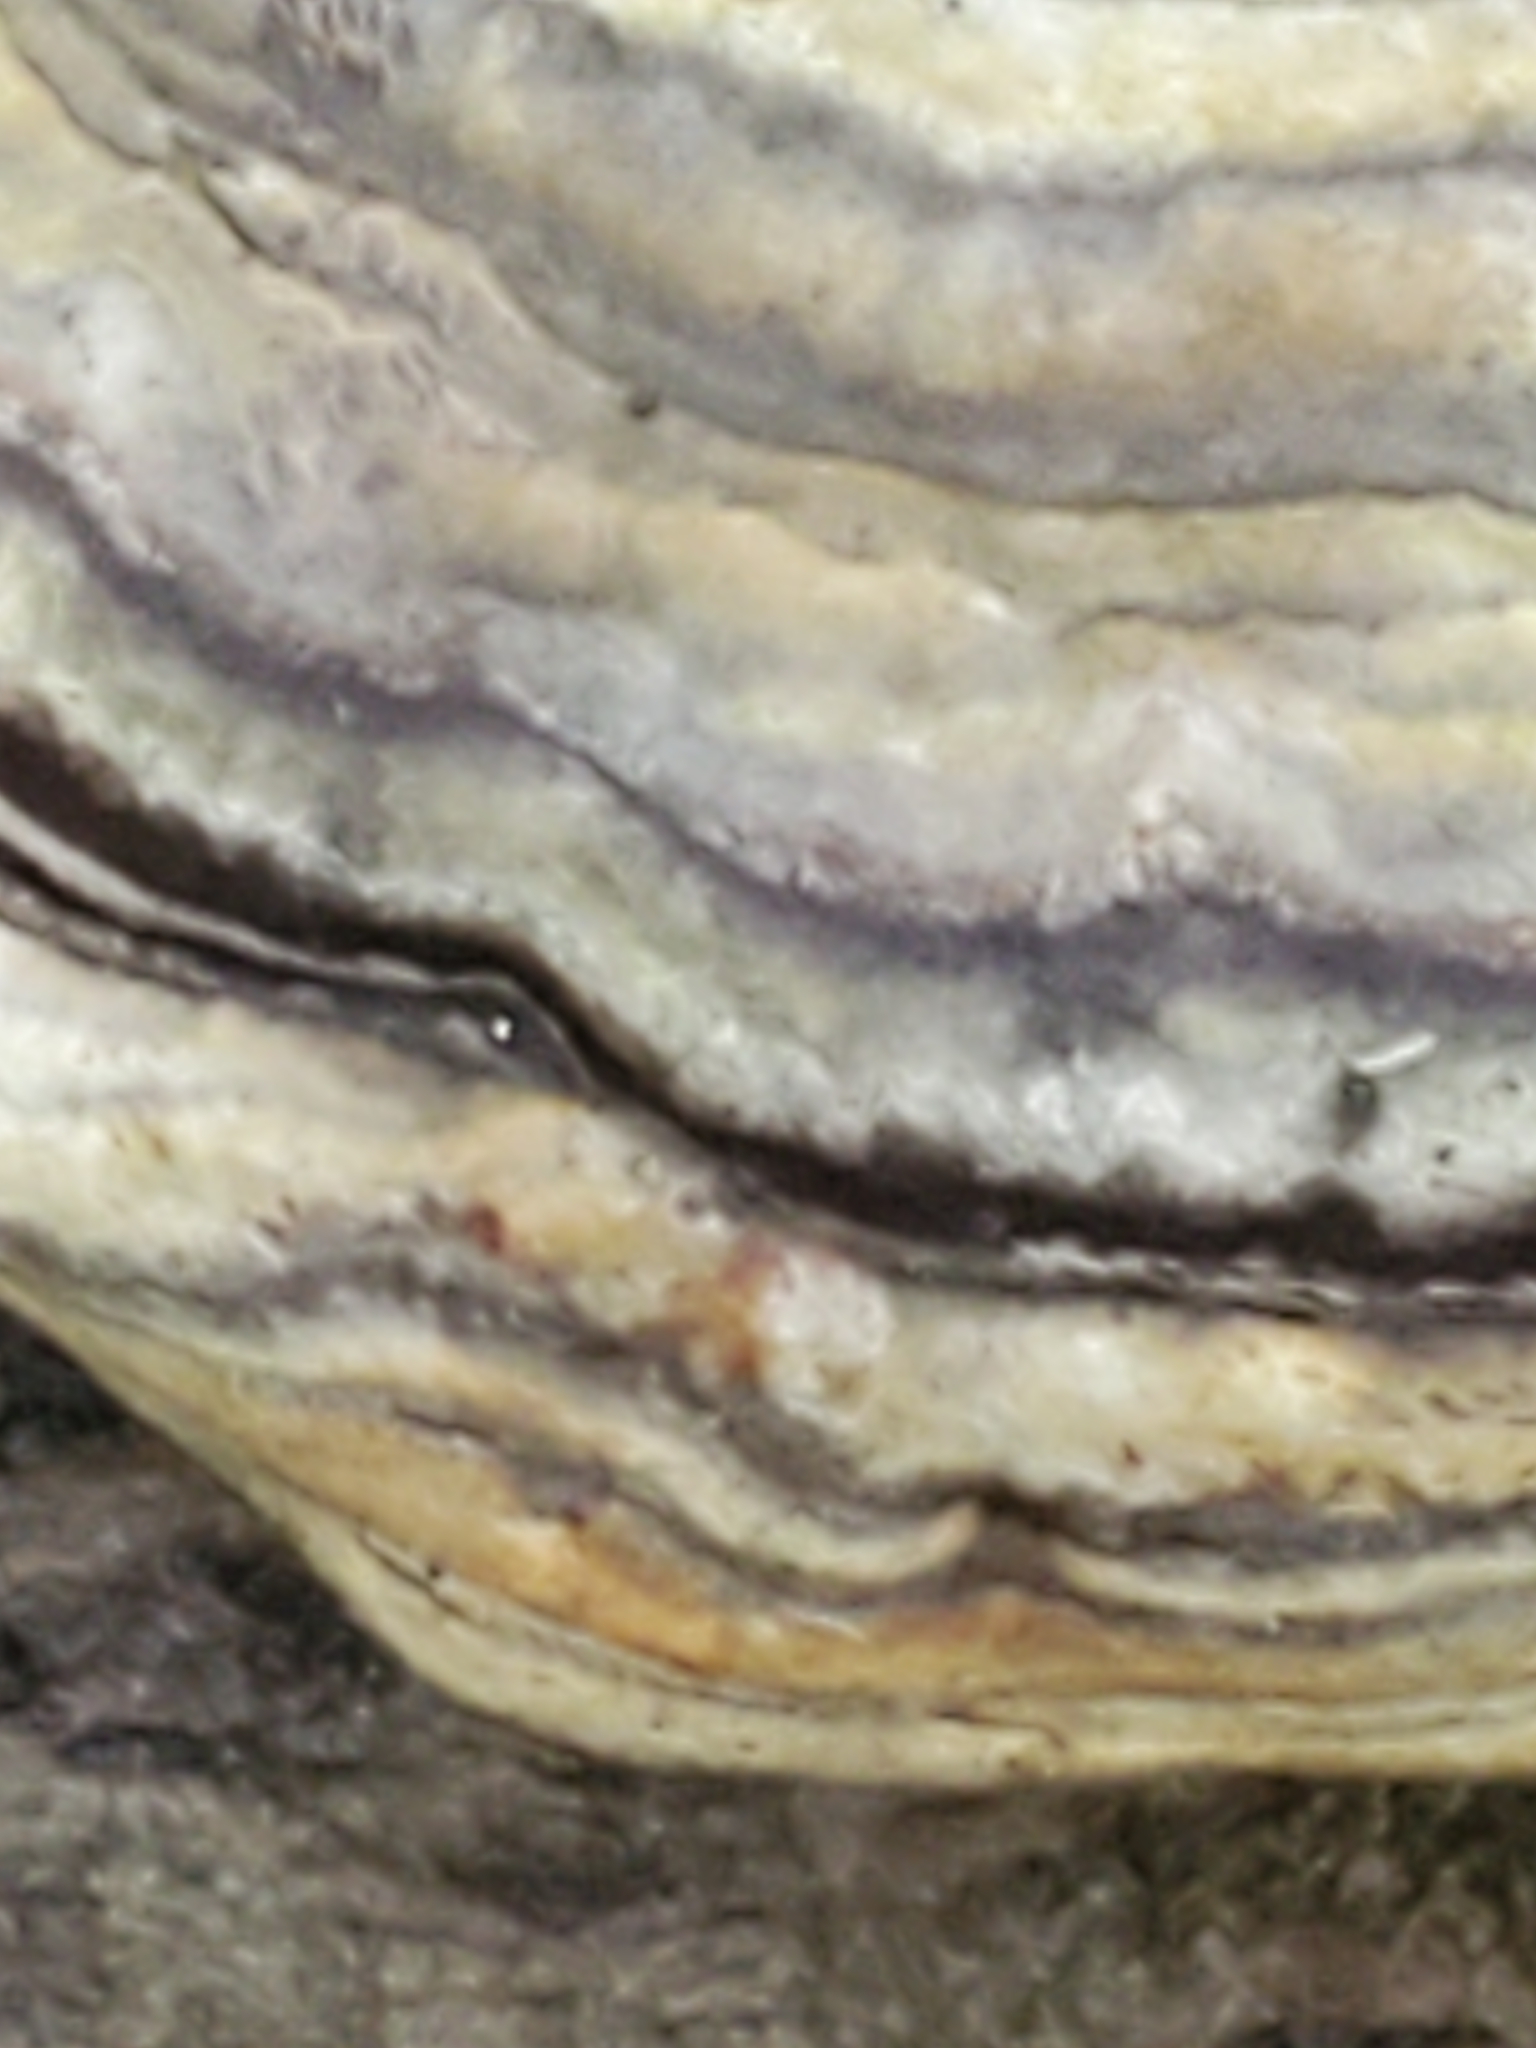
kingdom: Fungi
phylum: Basidiomycota
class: Agaricomycetes
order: Polyporales
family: Polyporaceae
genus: Ganoderma
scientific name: Ganoderma applanatum
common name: Artist's bracket
